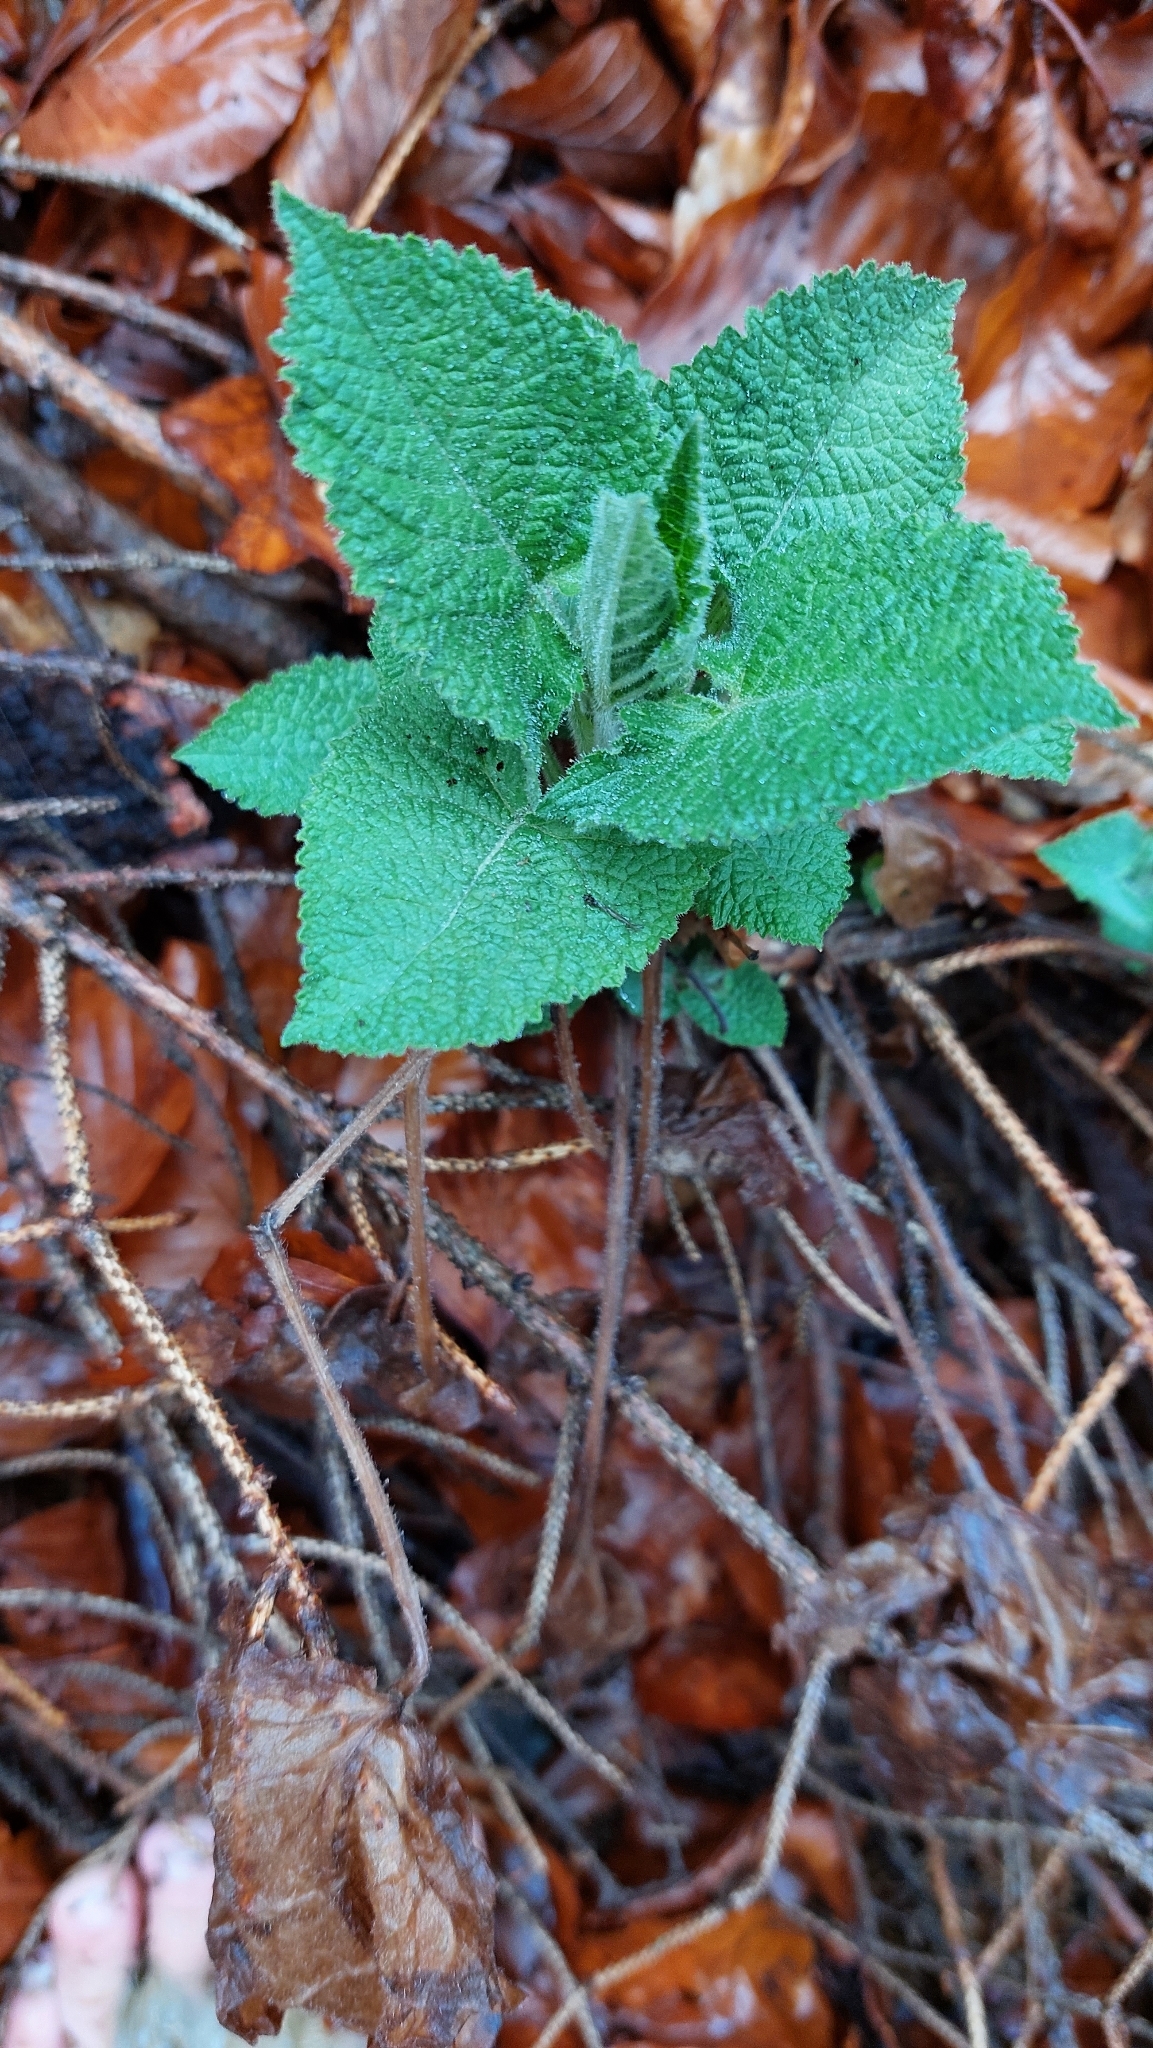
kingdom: Plantae
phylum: Tracheophyta
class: Magnoliopsida
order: Lamiales
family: Lamiaceae
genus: Salvia
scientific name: Salvia glutinosa
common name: Sticky clary
